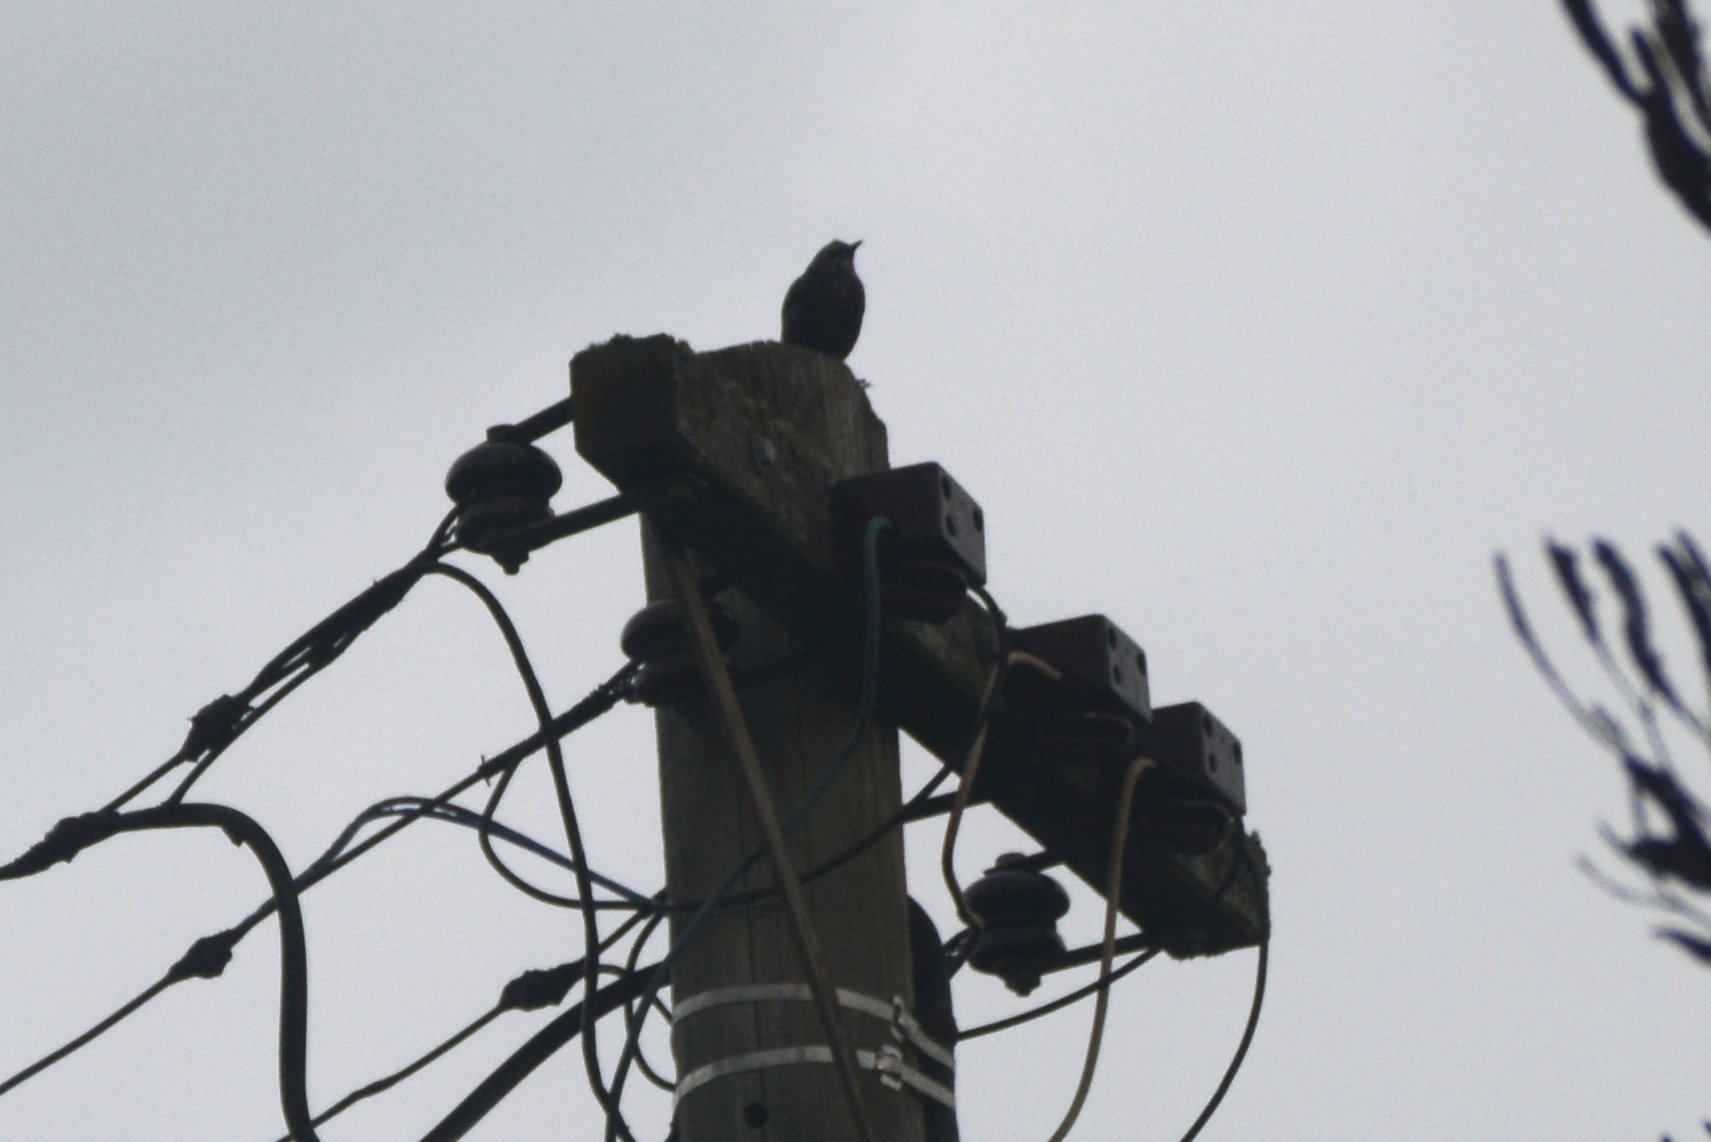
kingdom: Animalia
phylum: Chordata
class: Aves
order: Passeriformes
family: Sturnidae
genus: Sturnus
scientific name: Sturnus vulgaris
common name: Common starling
